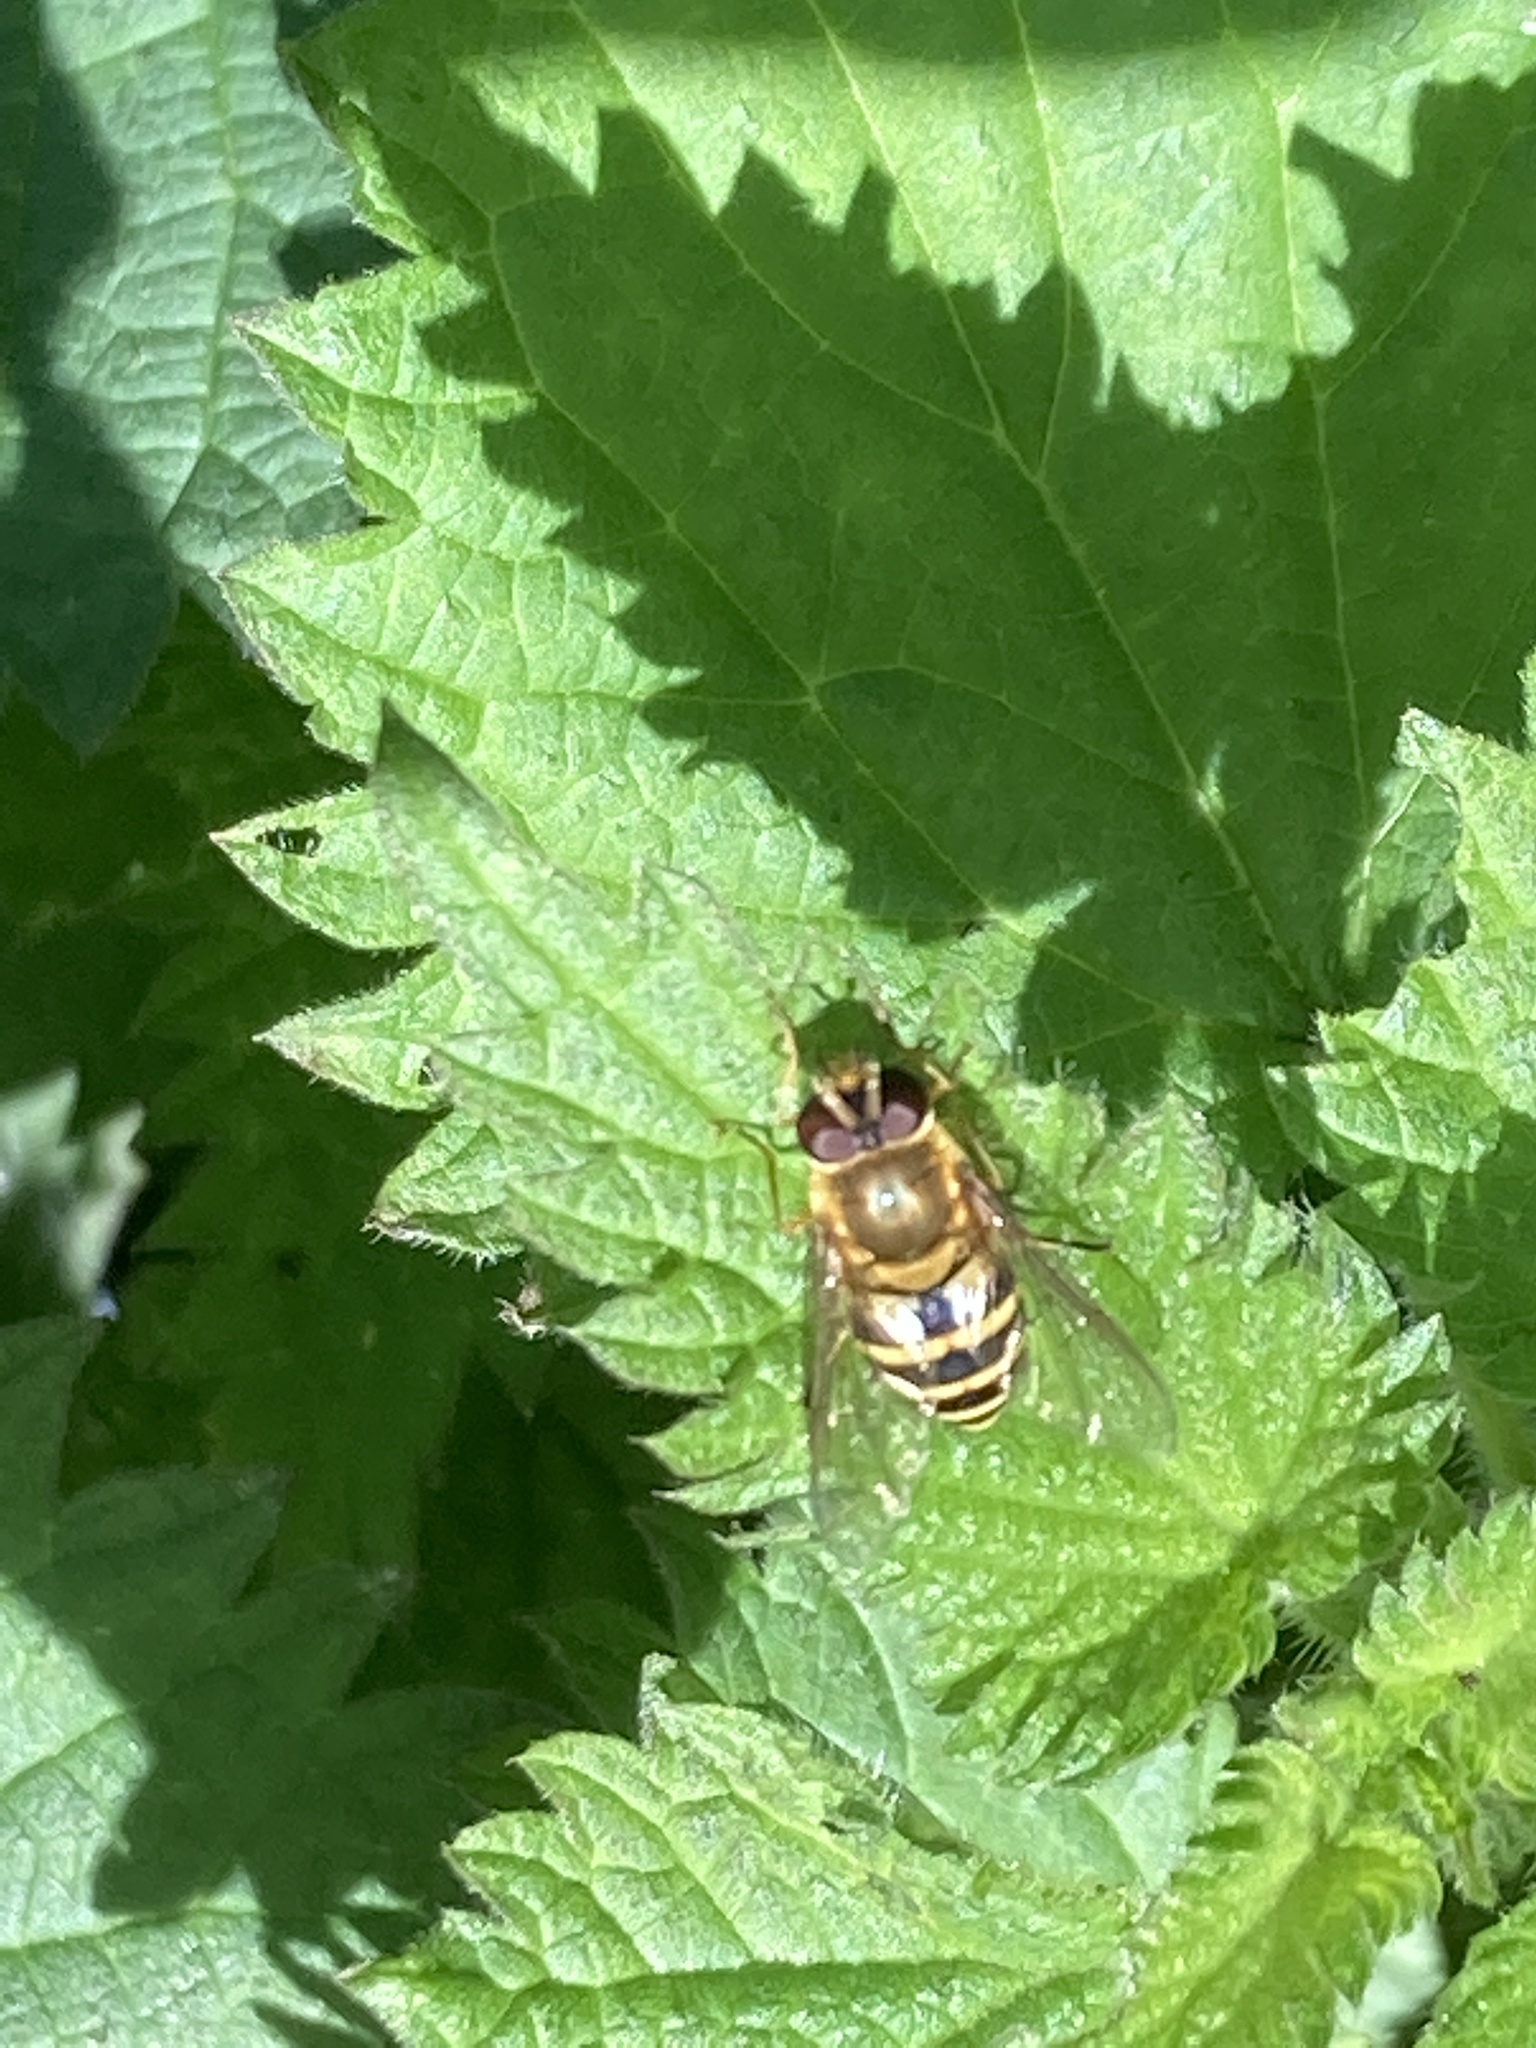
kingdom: Animalia
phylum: Arthropoda
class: Insecta
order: Diptera
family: Syrphidae
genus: Syrphus
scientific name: Syrphus
